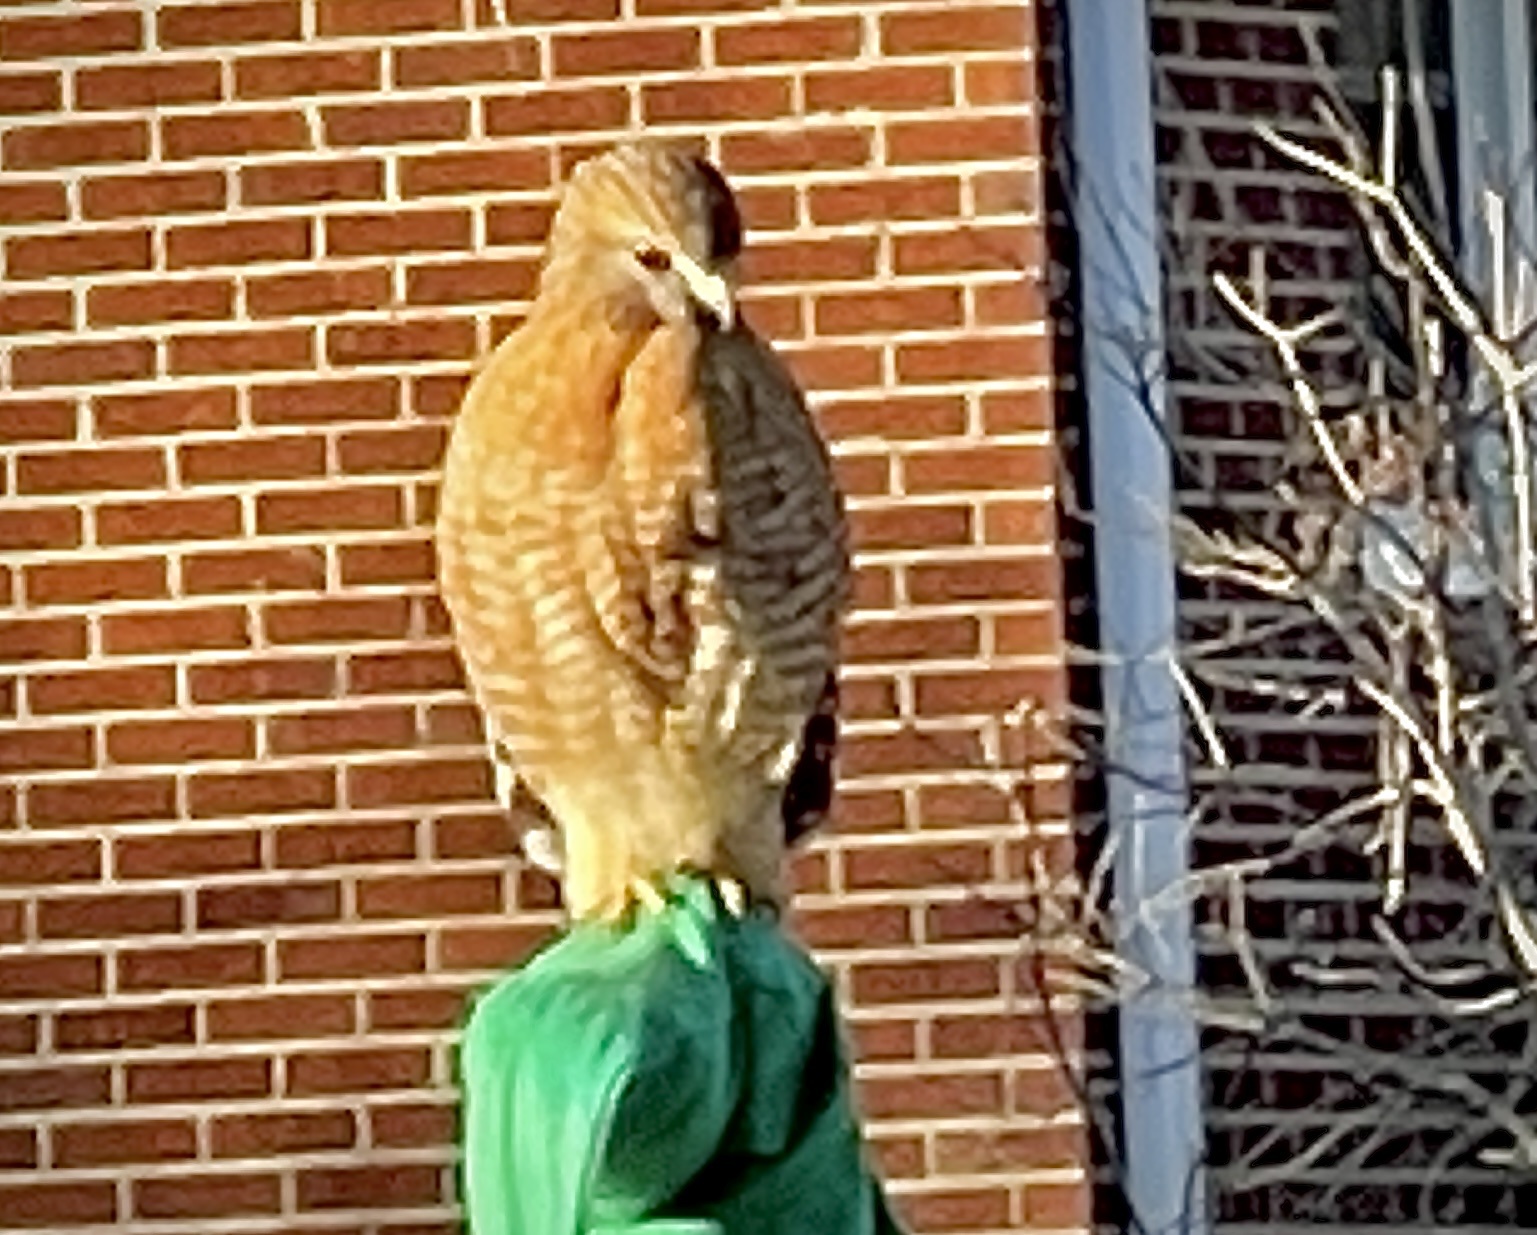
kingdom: Animalia
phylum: Chordata
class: Aves
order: Accipitriformes
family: Accipitridae
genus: Buteo
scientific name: Buteo lineatus
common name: Red-shouldered hawk
